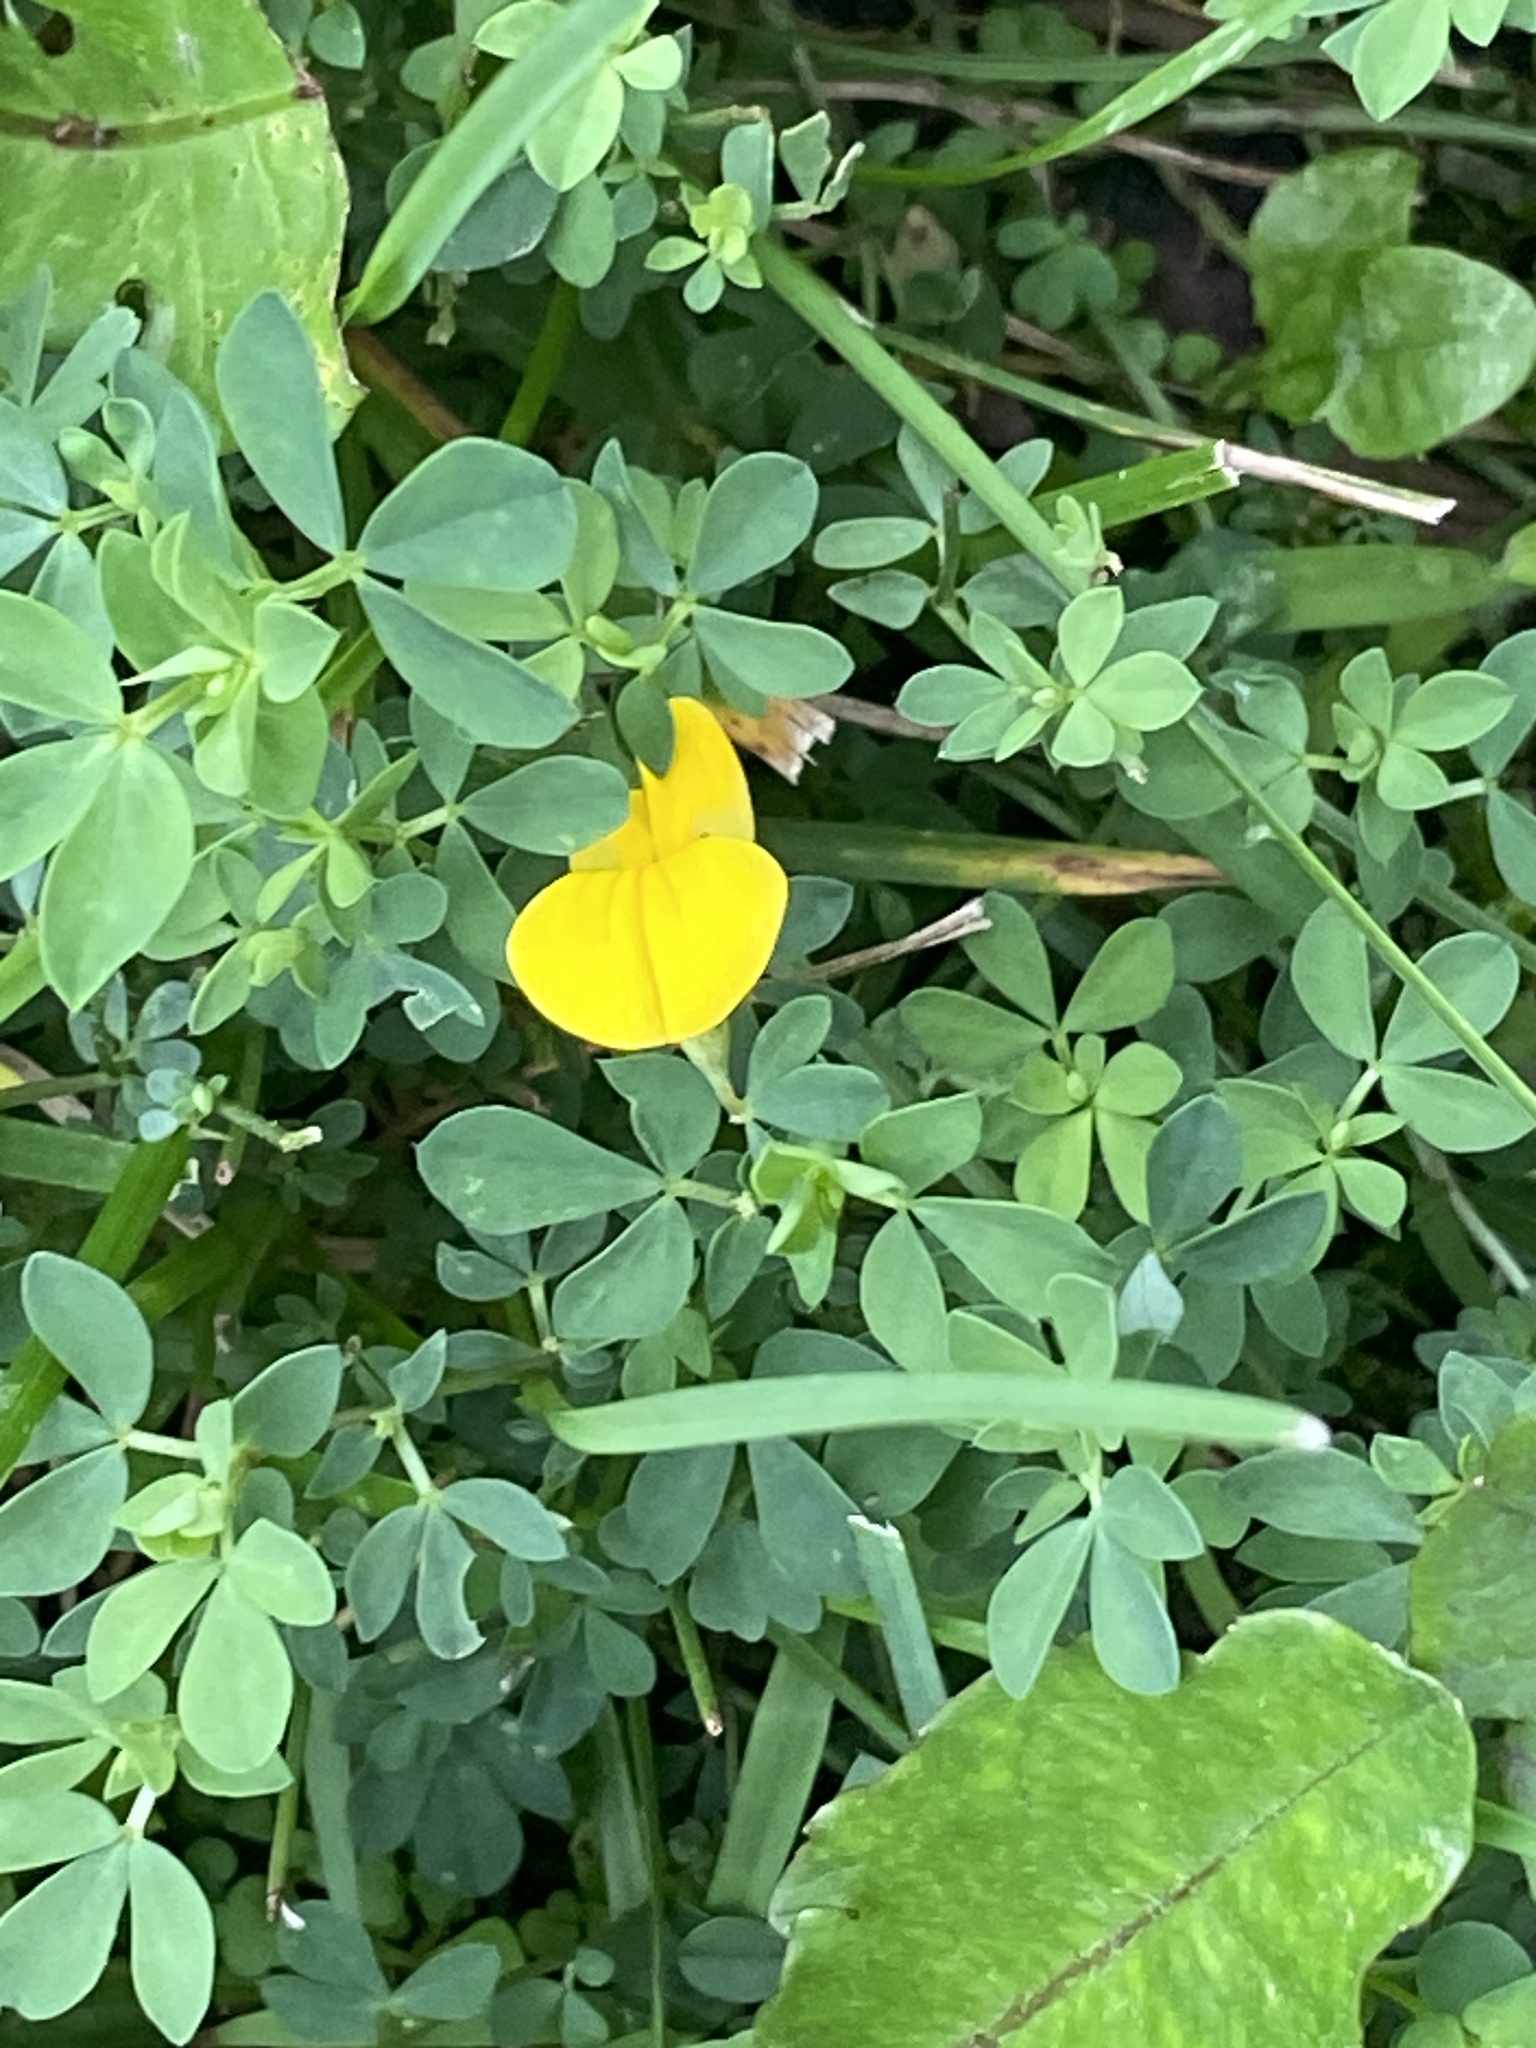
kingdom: Plantae
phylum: Tracheophyta
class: Magnoliopsida
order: Fabales
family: Fabaceae
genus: Lotus
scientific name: Lotus corniculatus
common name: Common bird's-foot-trefoil
